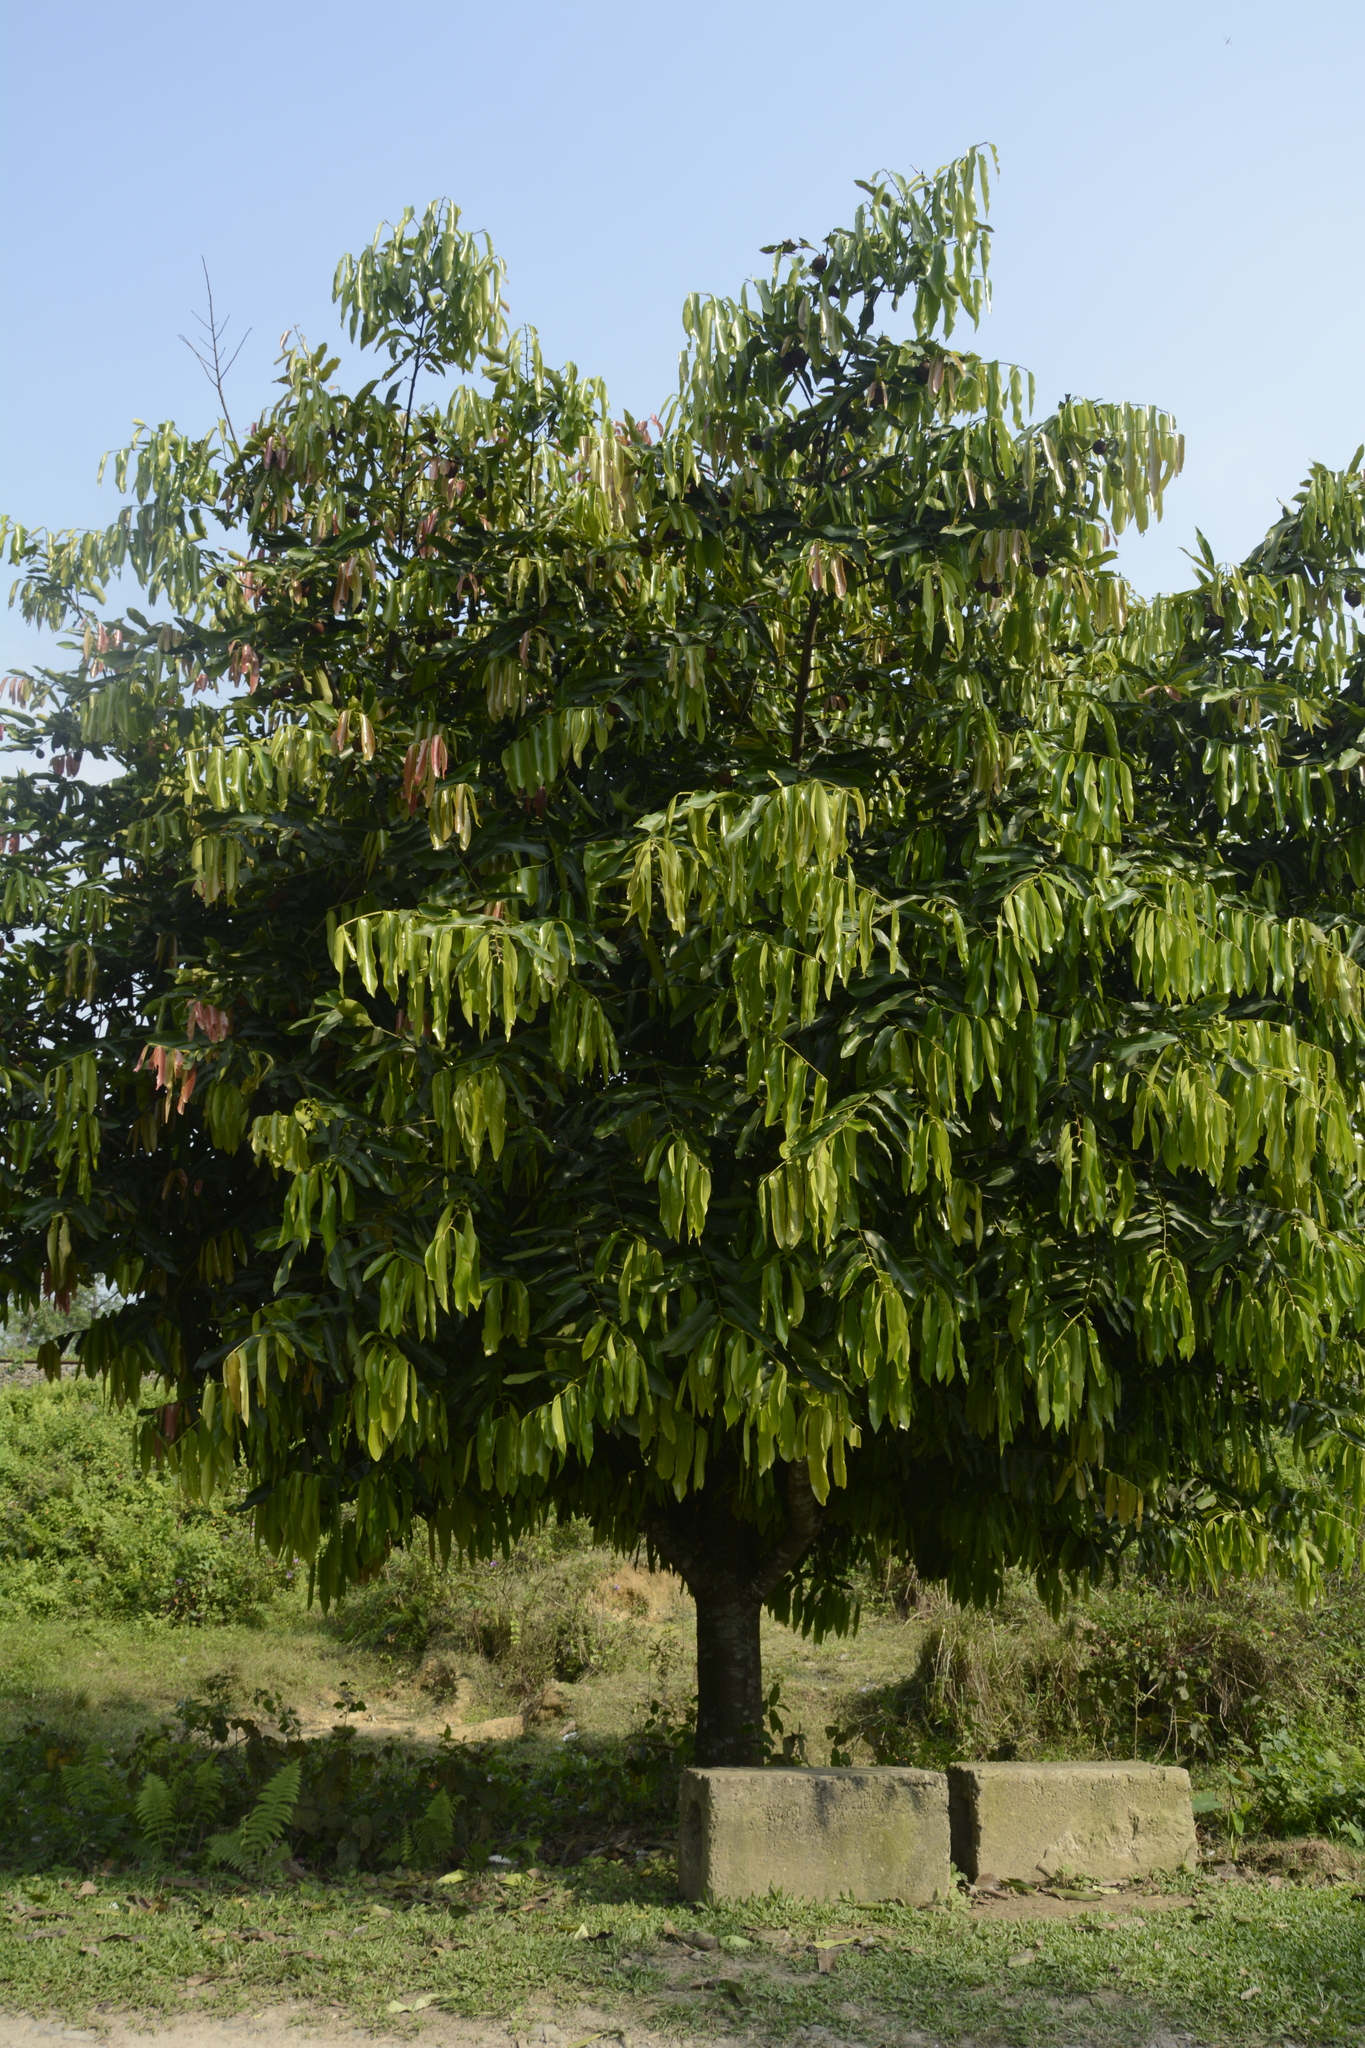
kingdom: Plantae
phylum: Tracheophyta
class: Magnoliopsida
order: Ericales
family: Ebenaceae
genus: Diospyros
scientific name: Diospyros malabarica
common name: Mountain ebony
